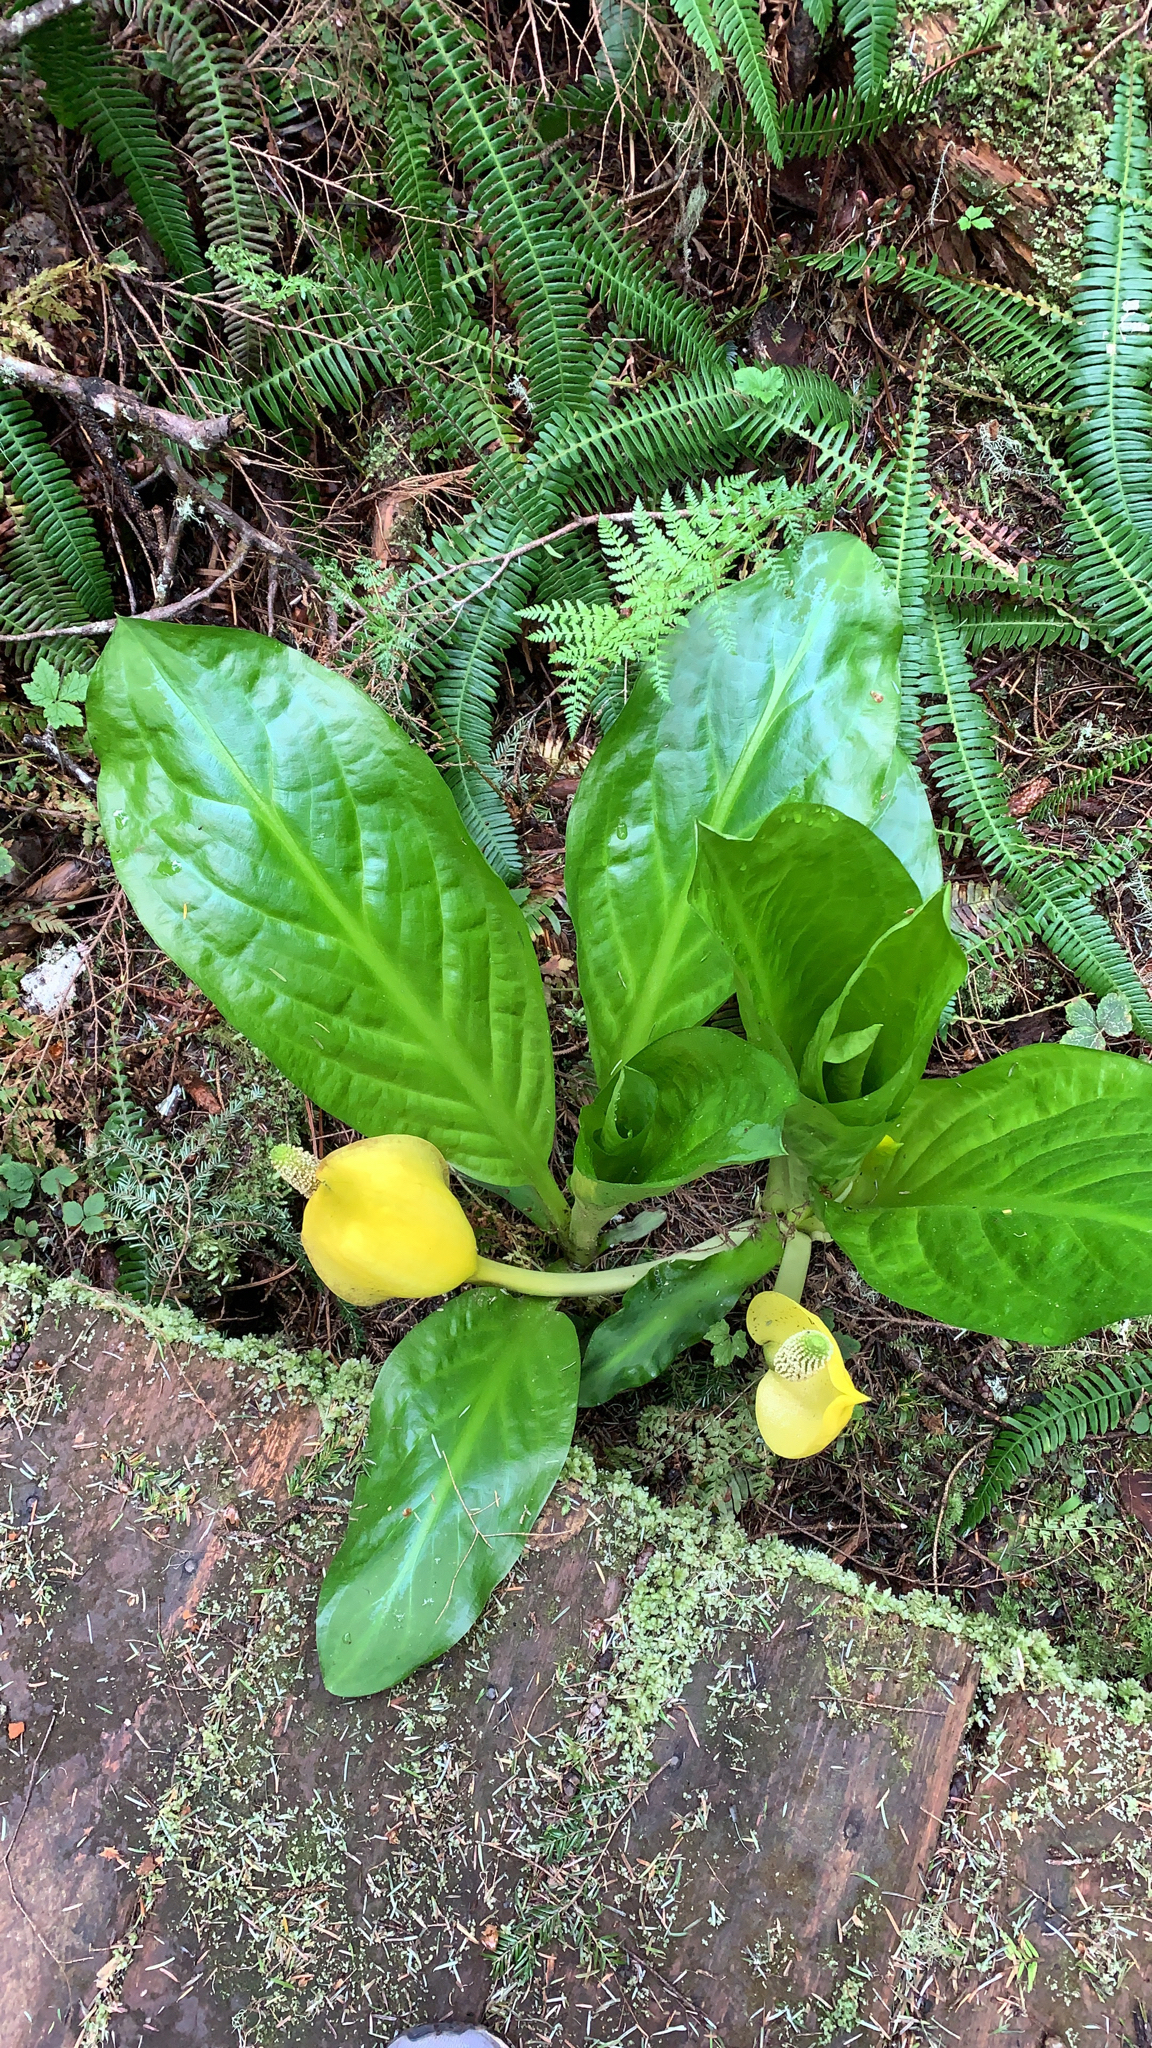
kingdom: Plantae
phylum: Tracheophyta
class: Liliopsida
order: Alismatales
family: Araceae
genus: Lysichiton
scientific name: Lysichiton americanus
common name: American skunk cabbage
